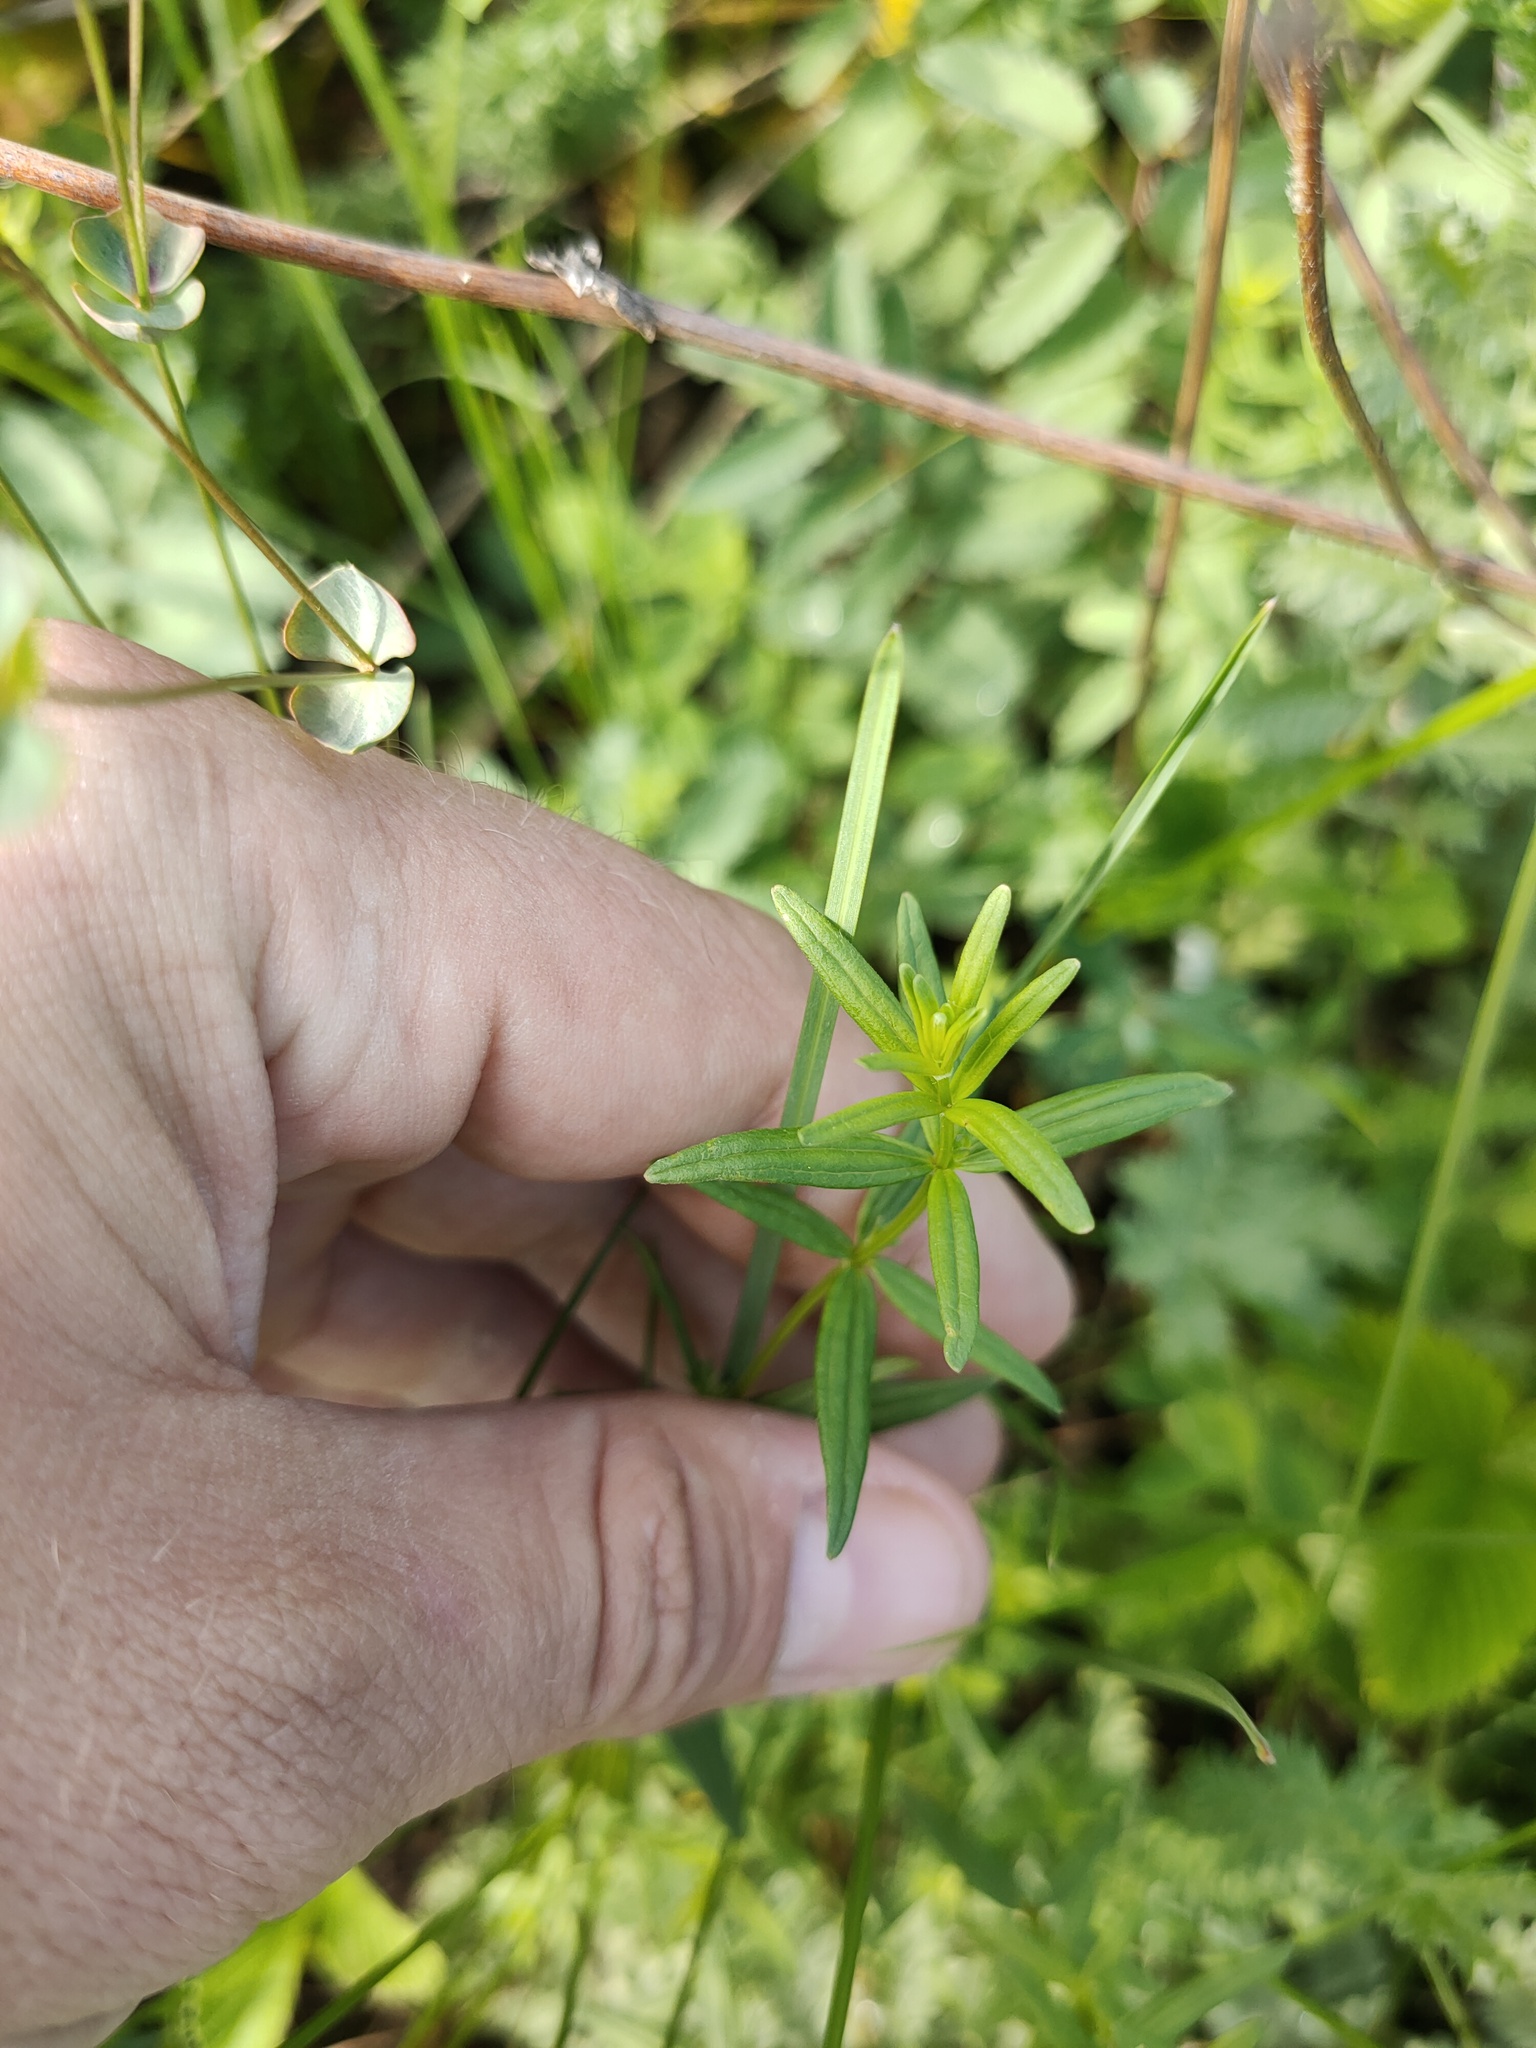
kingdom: Plantae
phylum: Tracheophyta
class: Magnoliopsida
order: Gentianales
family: Rubiaceae
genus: Galium
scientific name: Galium boreale
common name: Northern bedstraw
